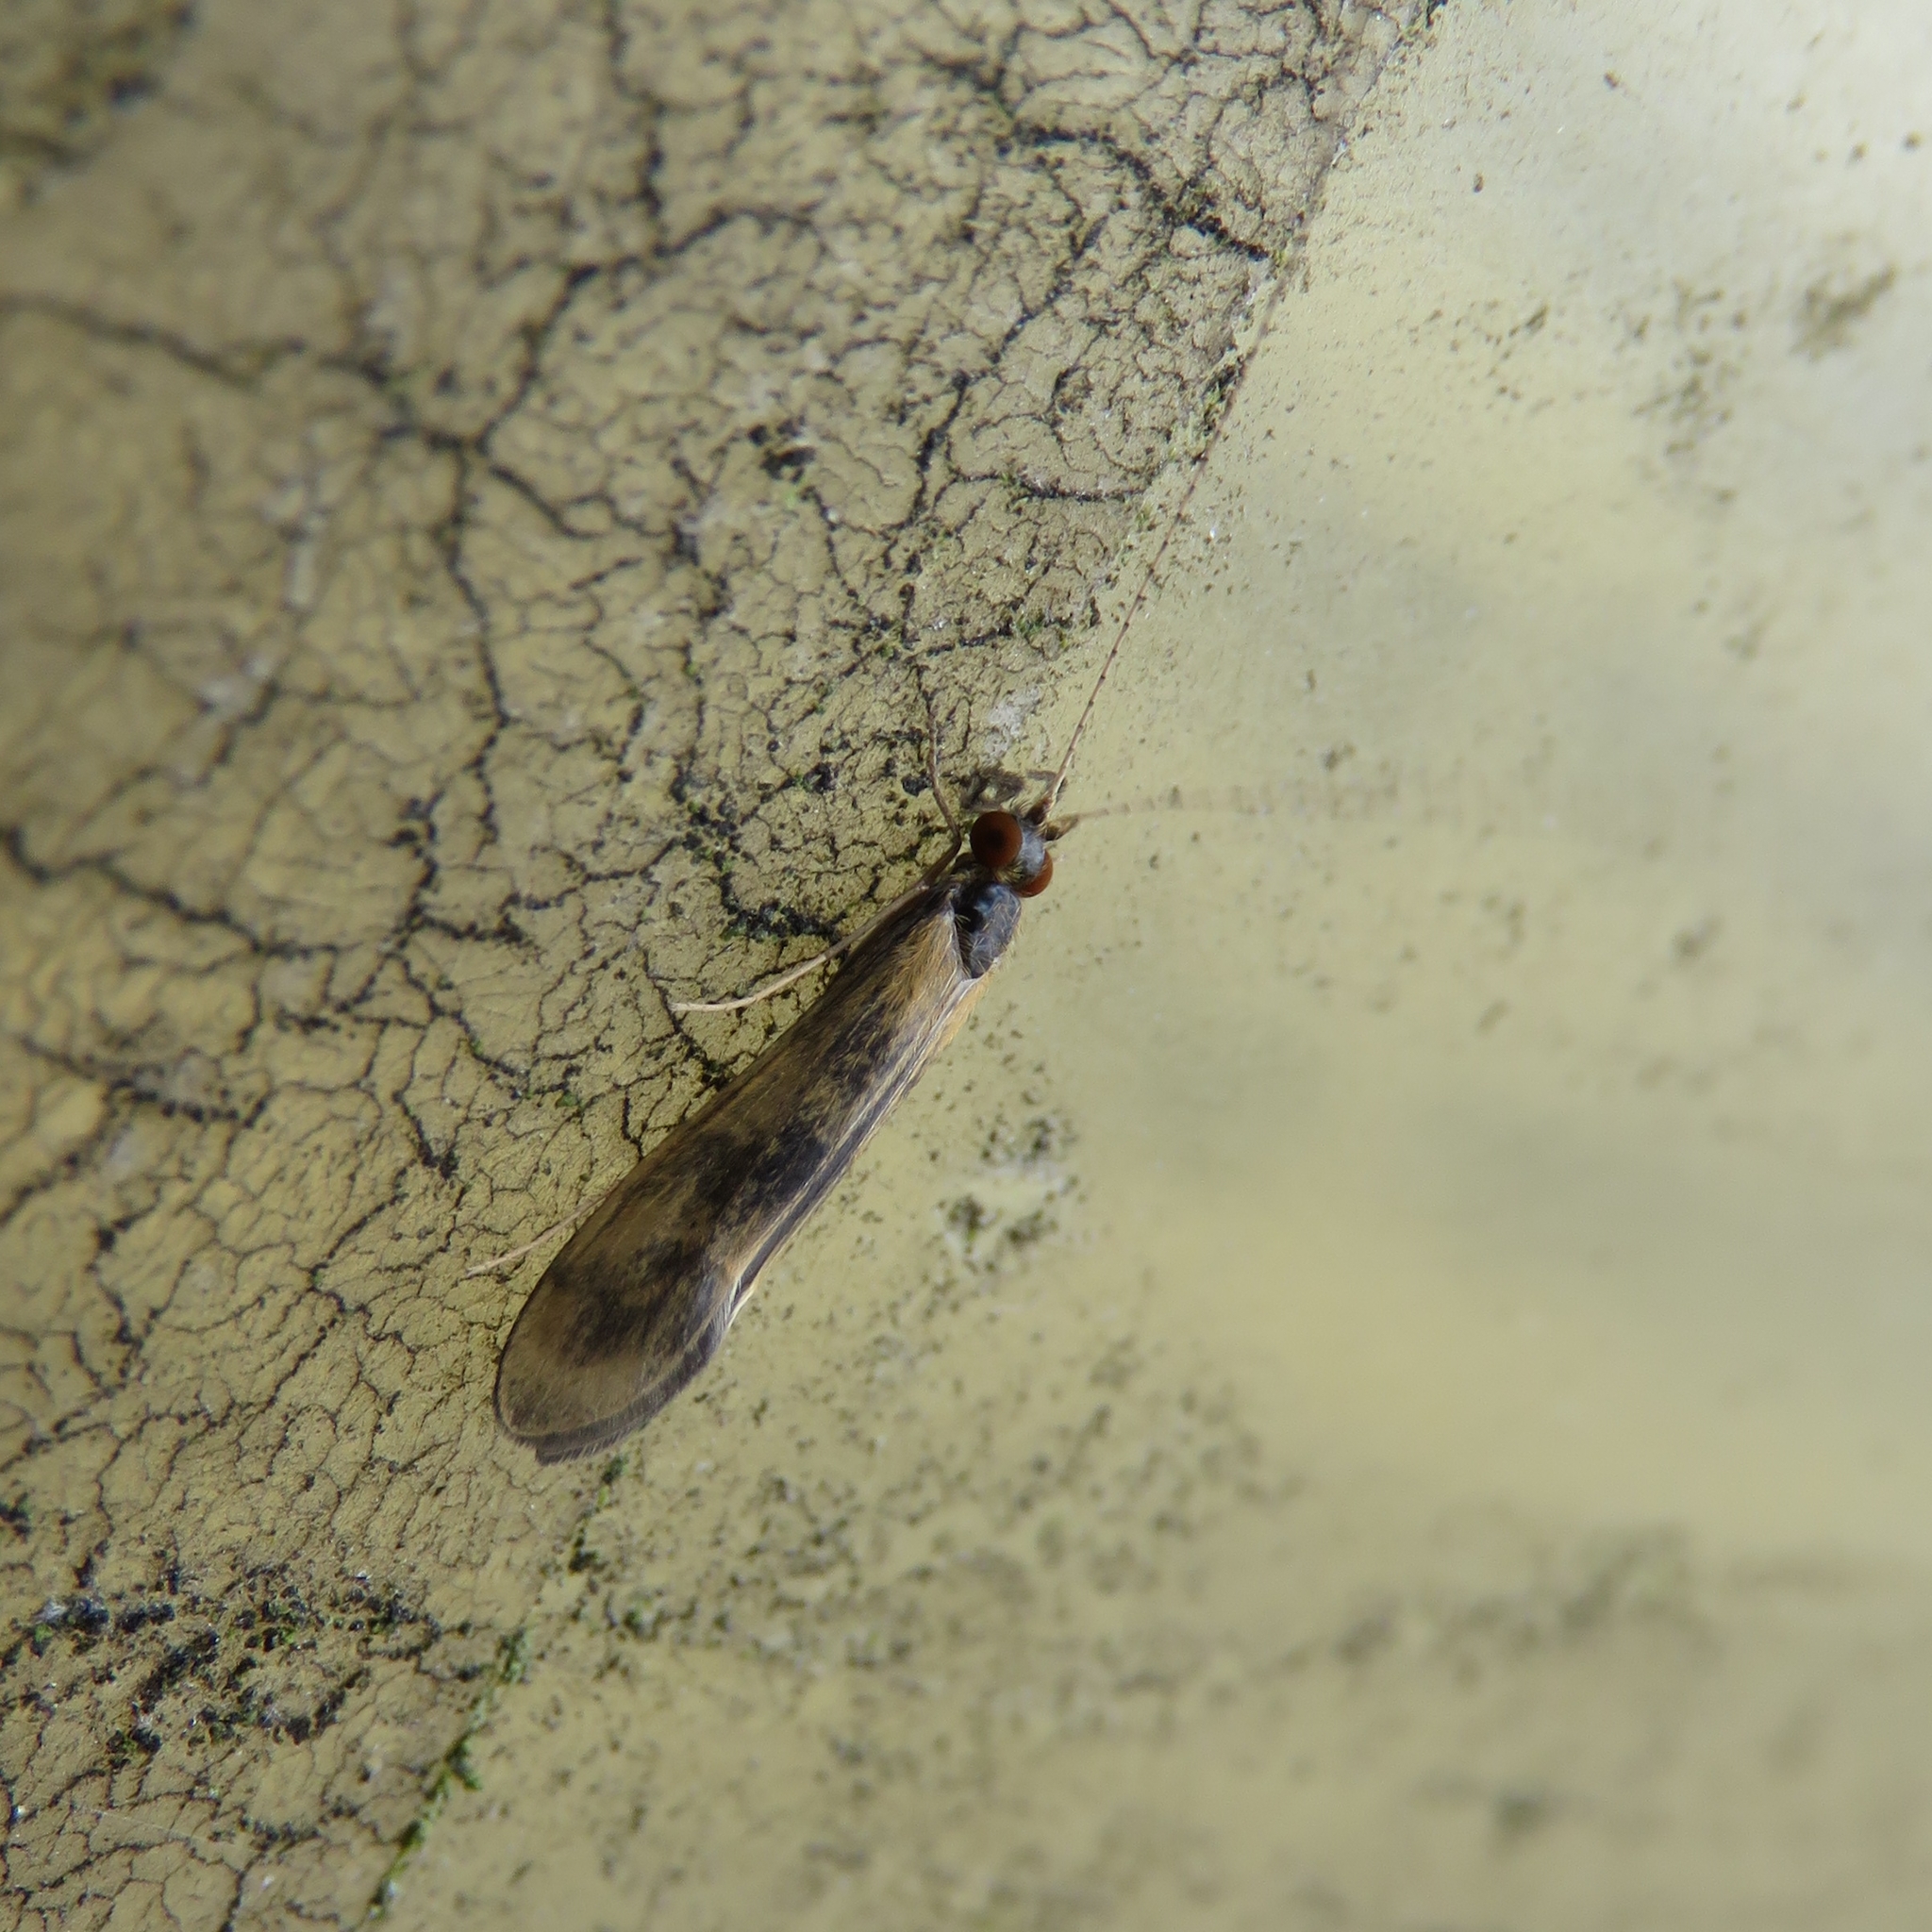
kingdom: Animalia
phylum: Arthropoda
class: Insecta
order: Trichoptera
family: Leptoceridae
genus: Mystacides
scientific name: Mystacides longicornis
